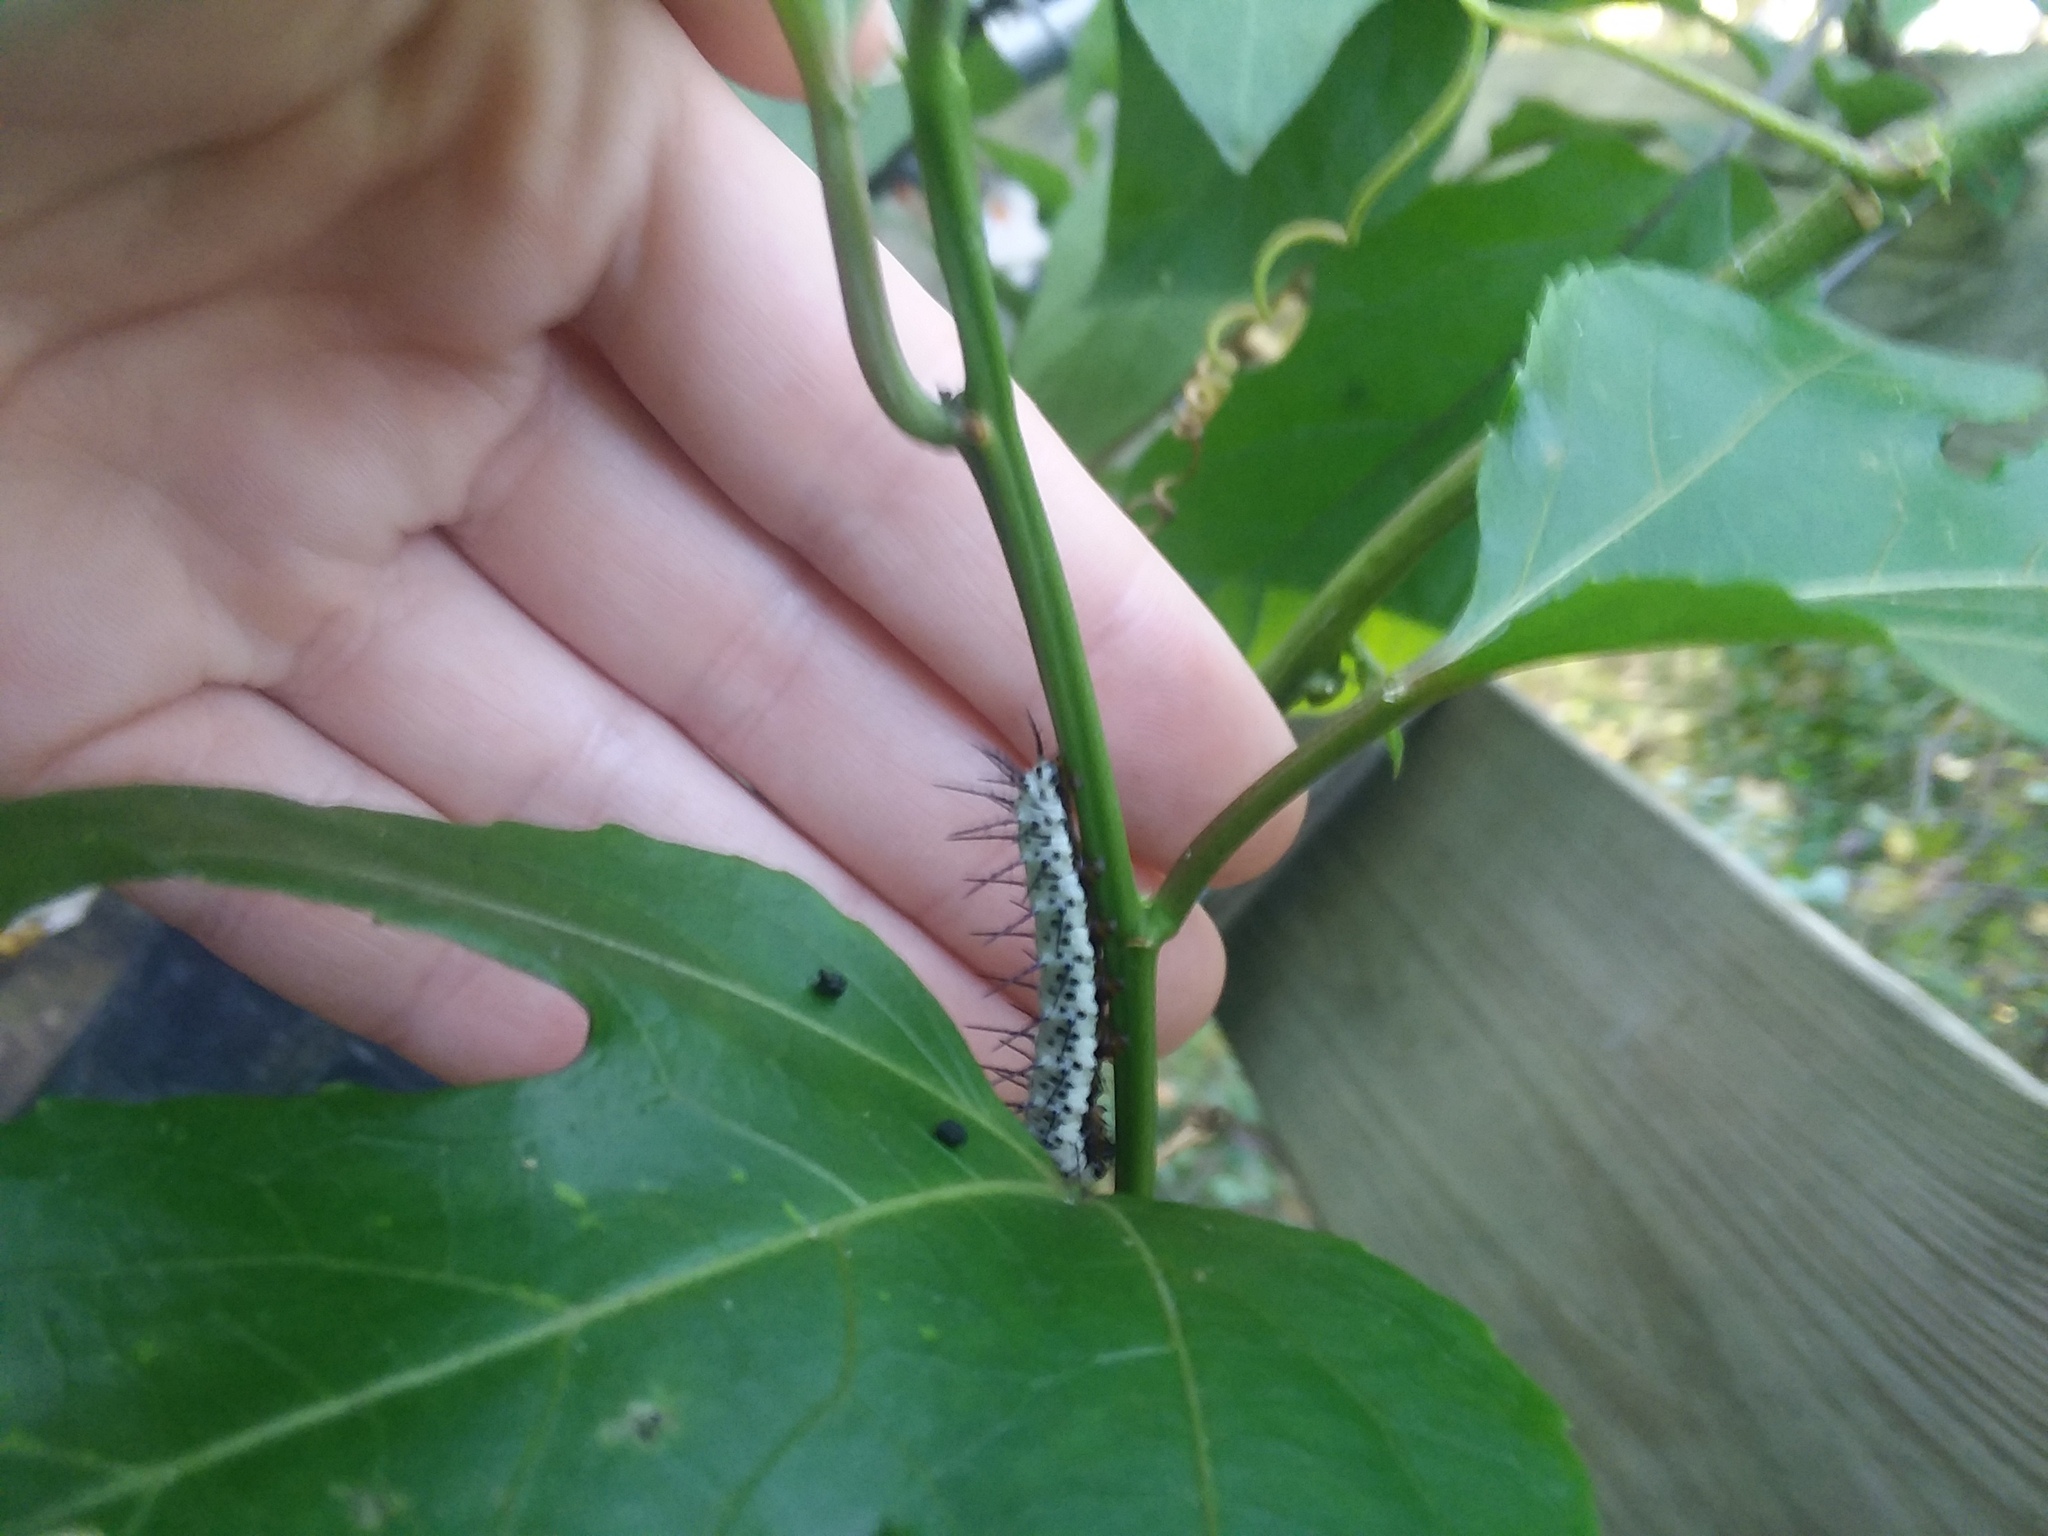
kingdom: Animalia
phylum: Arthropoda
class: Insecta
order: Lepidoptera
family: Nymphalidae
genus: Heliconius
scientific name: Heliconius charithonia
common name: Zebra long wing
